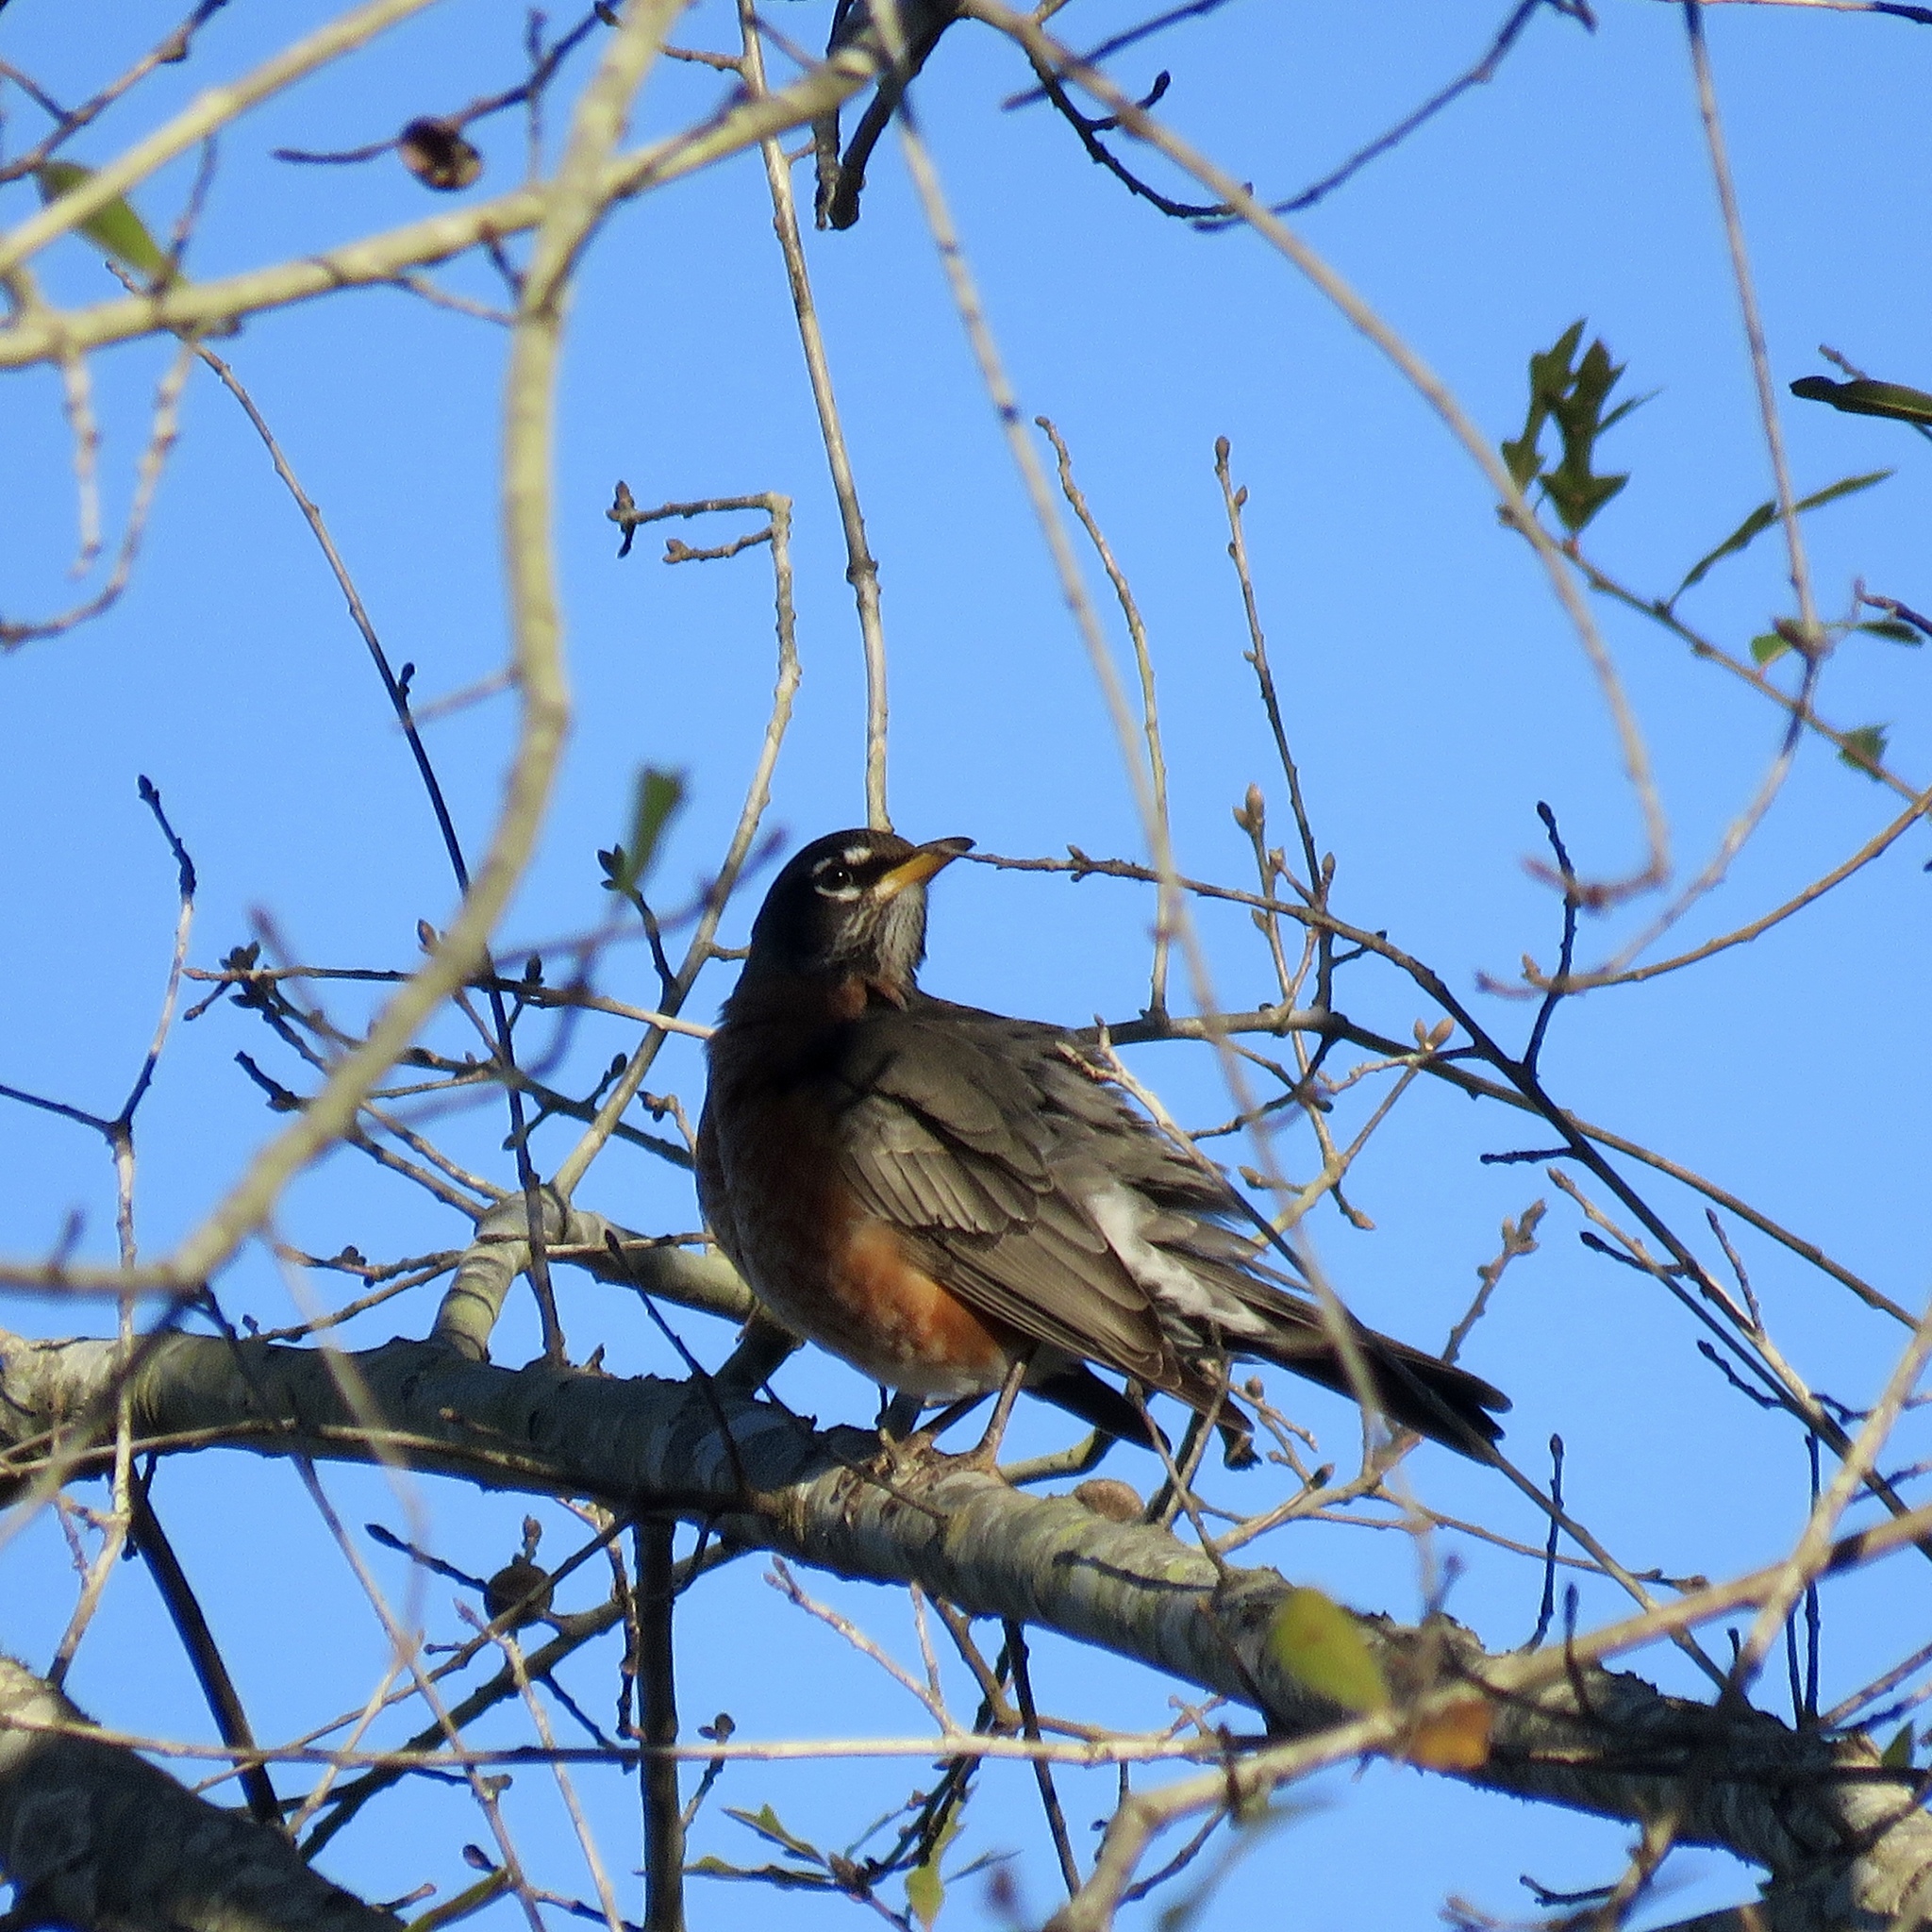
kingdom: Animalia
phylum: Chordata
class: Aves
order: Passeriformes
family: Turdidae
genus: Turdus
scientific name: Turdus migratorius
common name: American robin
